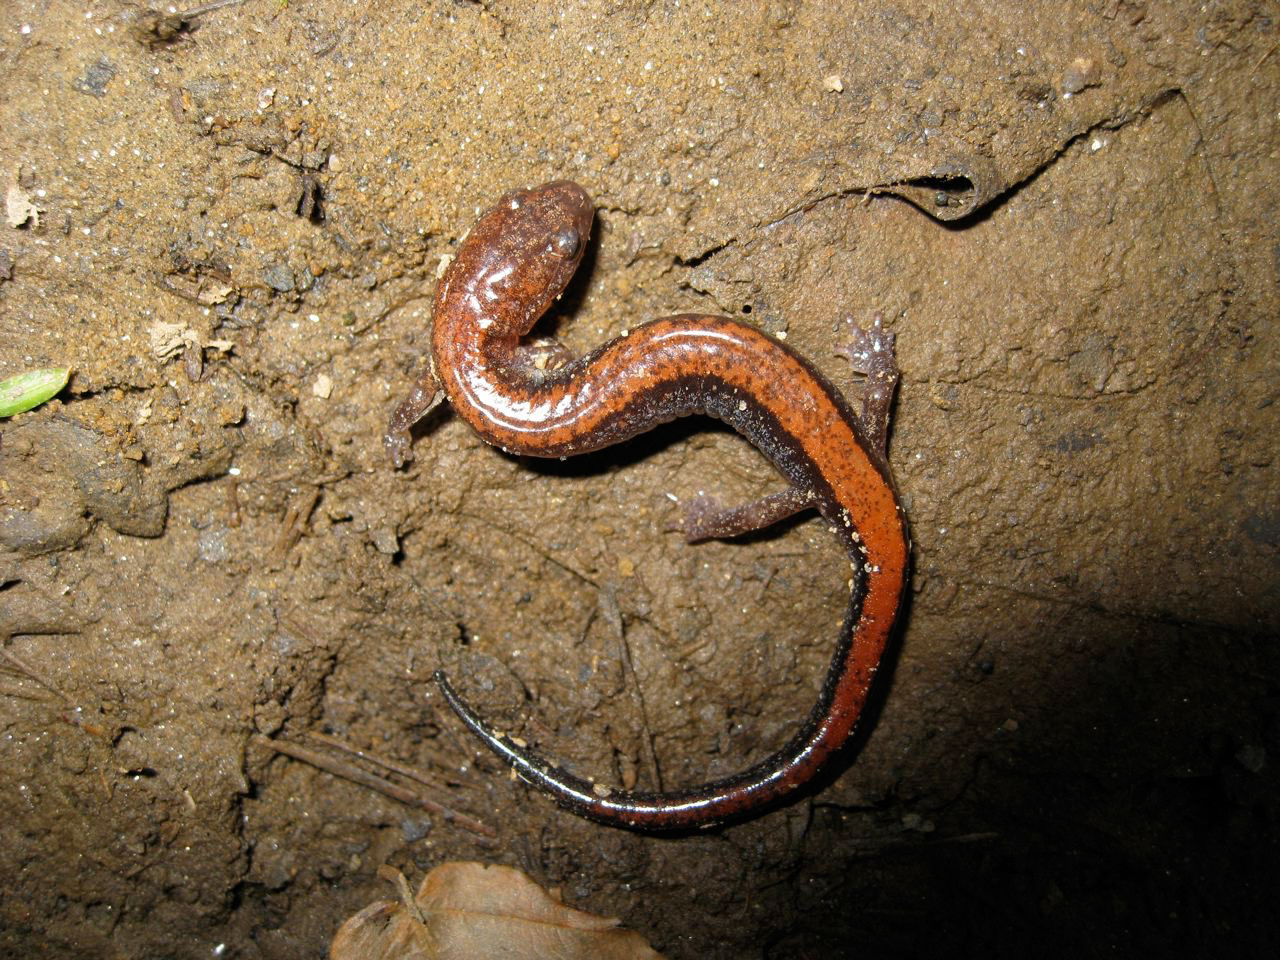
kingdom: Animalia
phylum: Chordata
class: Amphibia
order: Caudata
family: Plethodontidae
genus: Plethodon
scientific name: Plethodon cinereus
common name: Redback salamander
